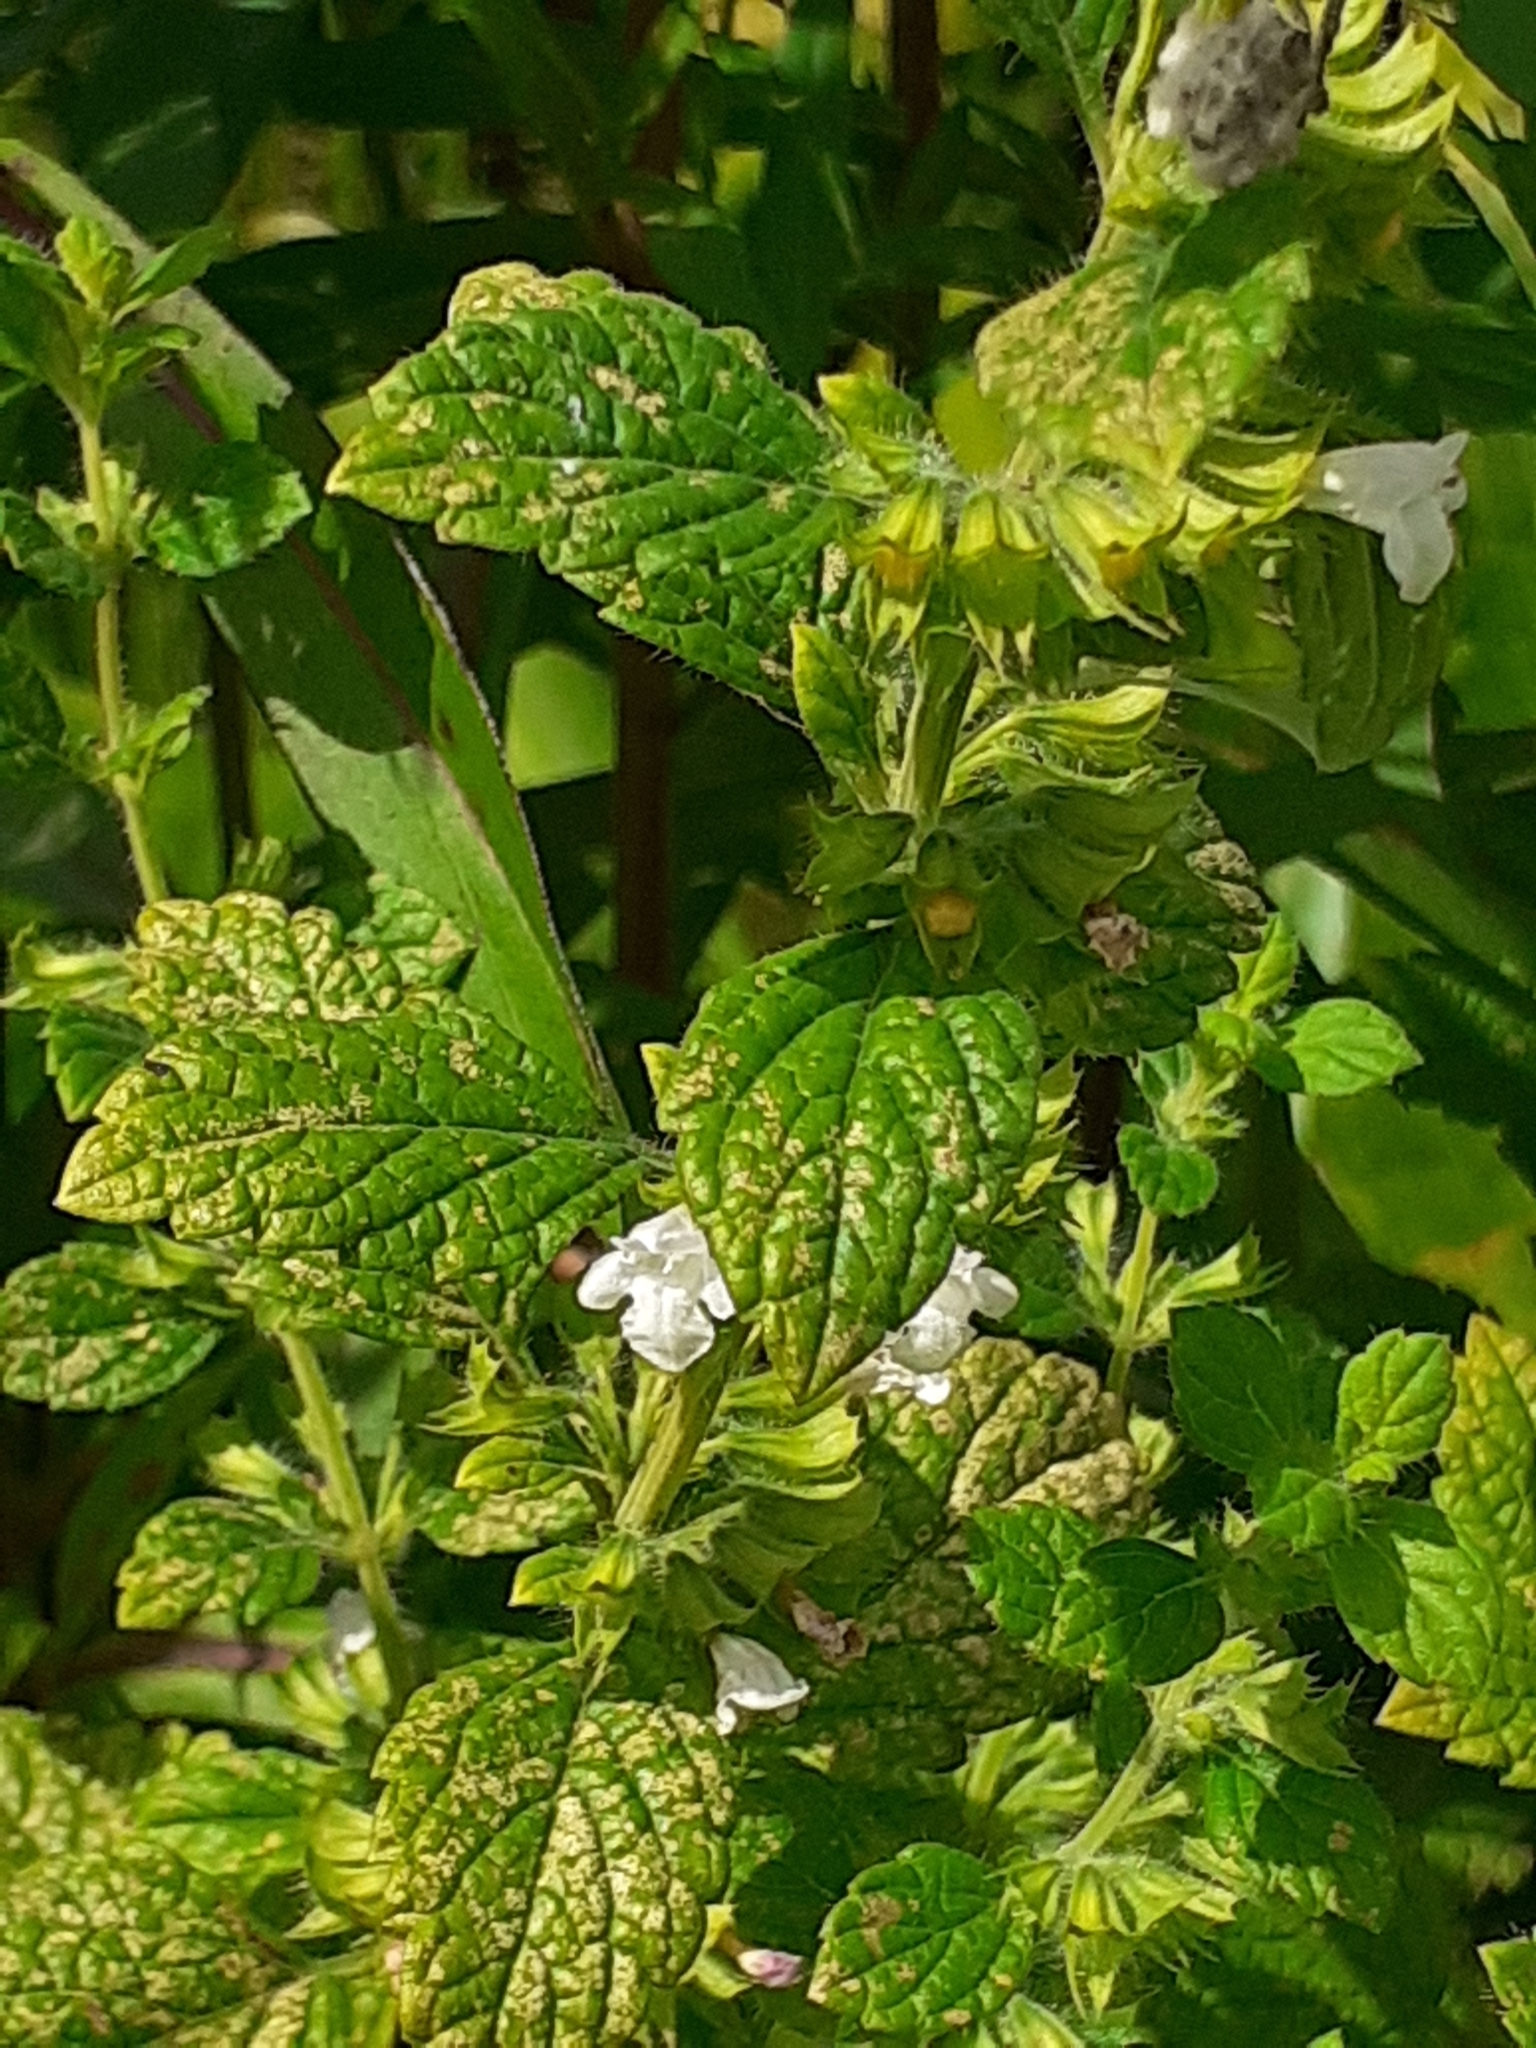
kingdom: Plantae
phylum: Tracheophyta
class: Magnoliopsida
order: Lamiales
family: Lamiaceae
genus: Melissa
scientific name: Melissa officinalis
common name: Balm
